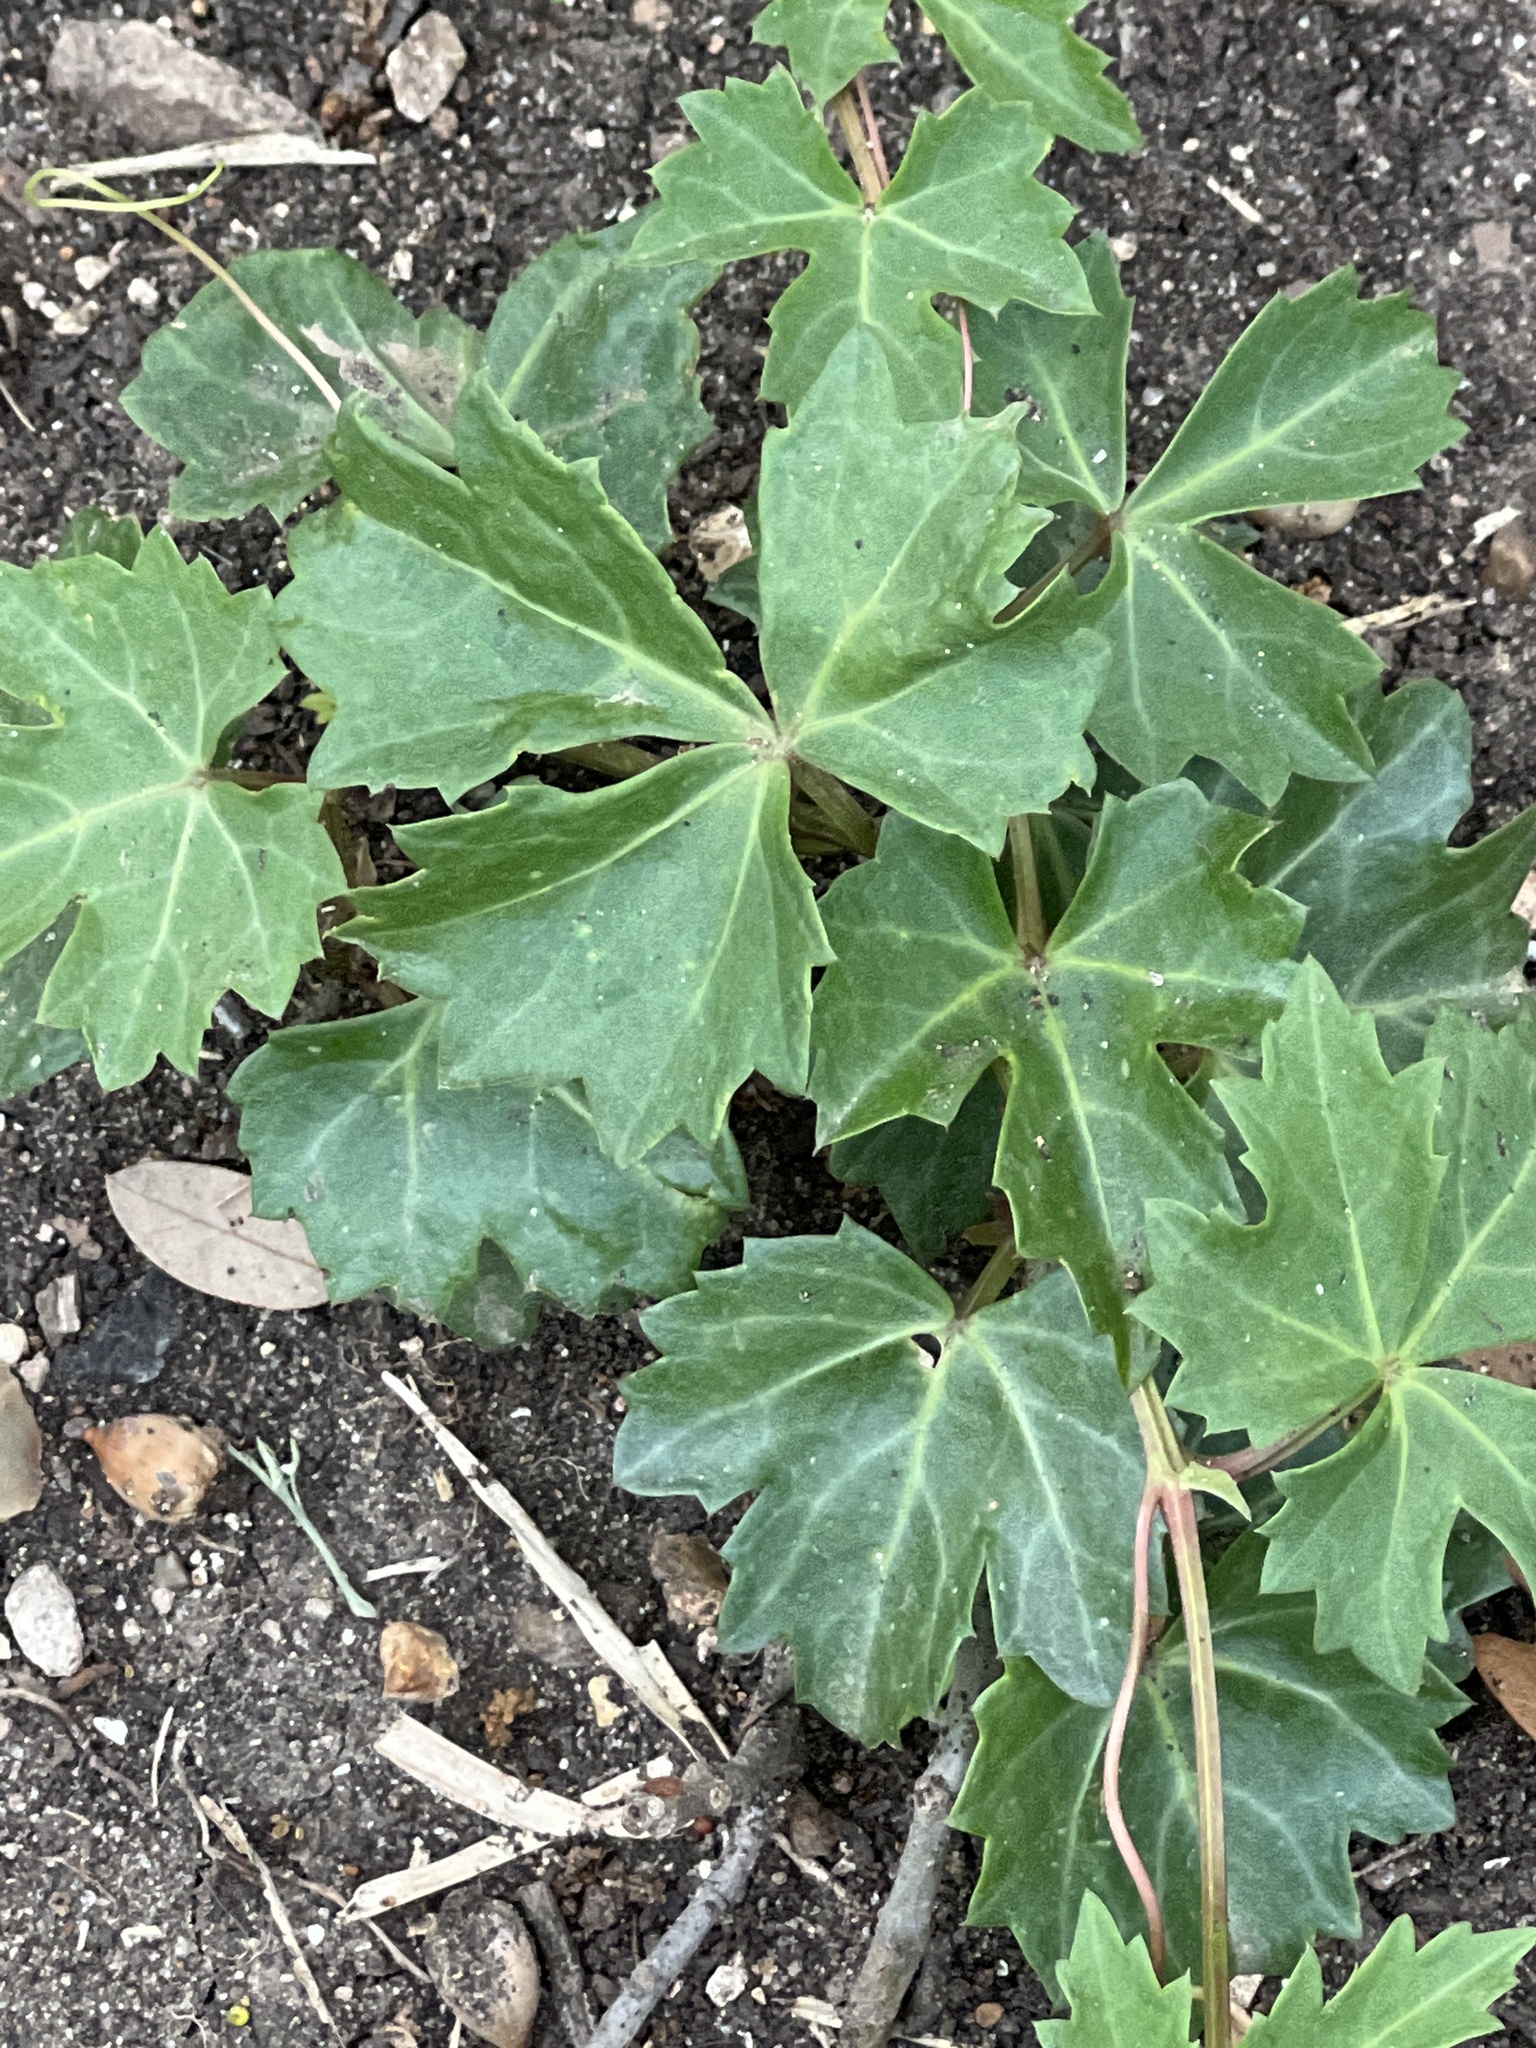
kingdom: Plantae
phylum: Tracheophyta
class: Magnoliopsida
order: Vitales
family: Vitaceae
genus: Cissus
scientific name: Cissus trifoliata
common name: Vine-sorrel
